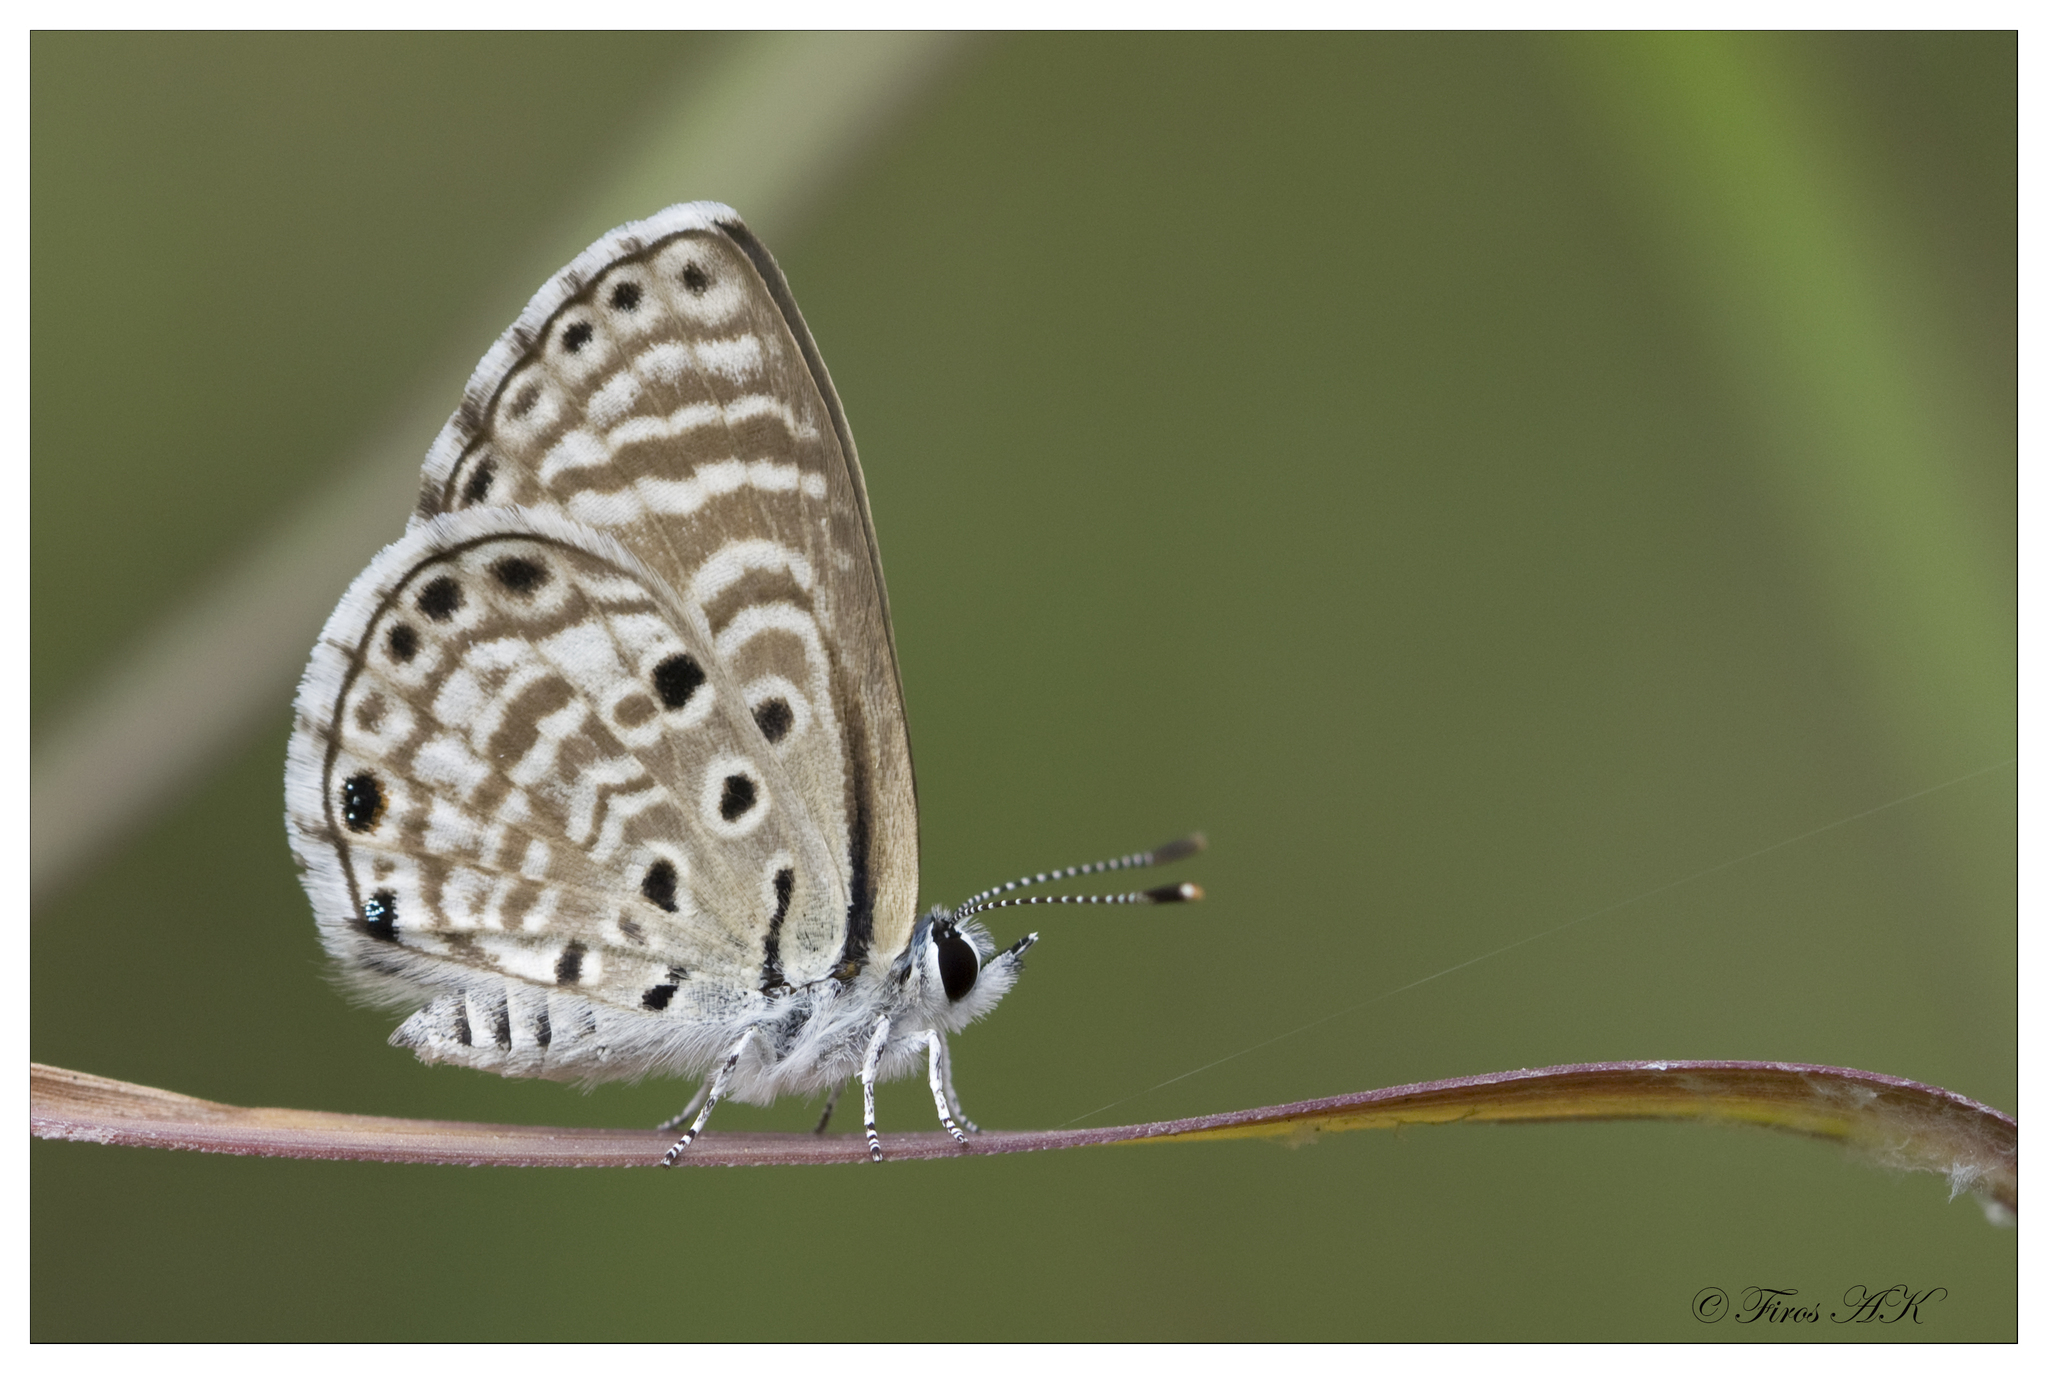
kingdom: Animalia
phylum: Arthropoda
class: Insecta
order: Lepidoptera
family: Lycaenidae
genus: Azanus
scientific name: Azanus jesous
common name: African babul blue
